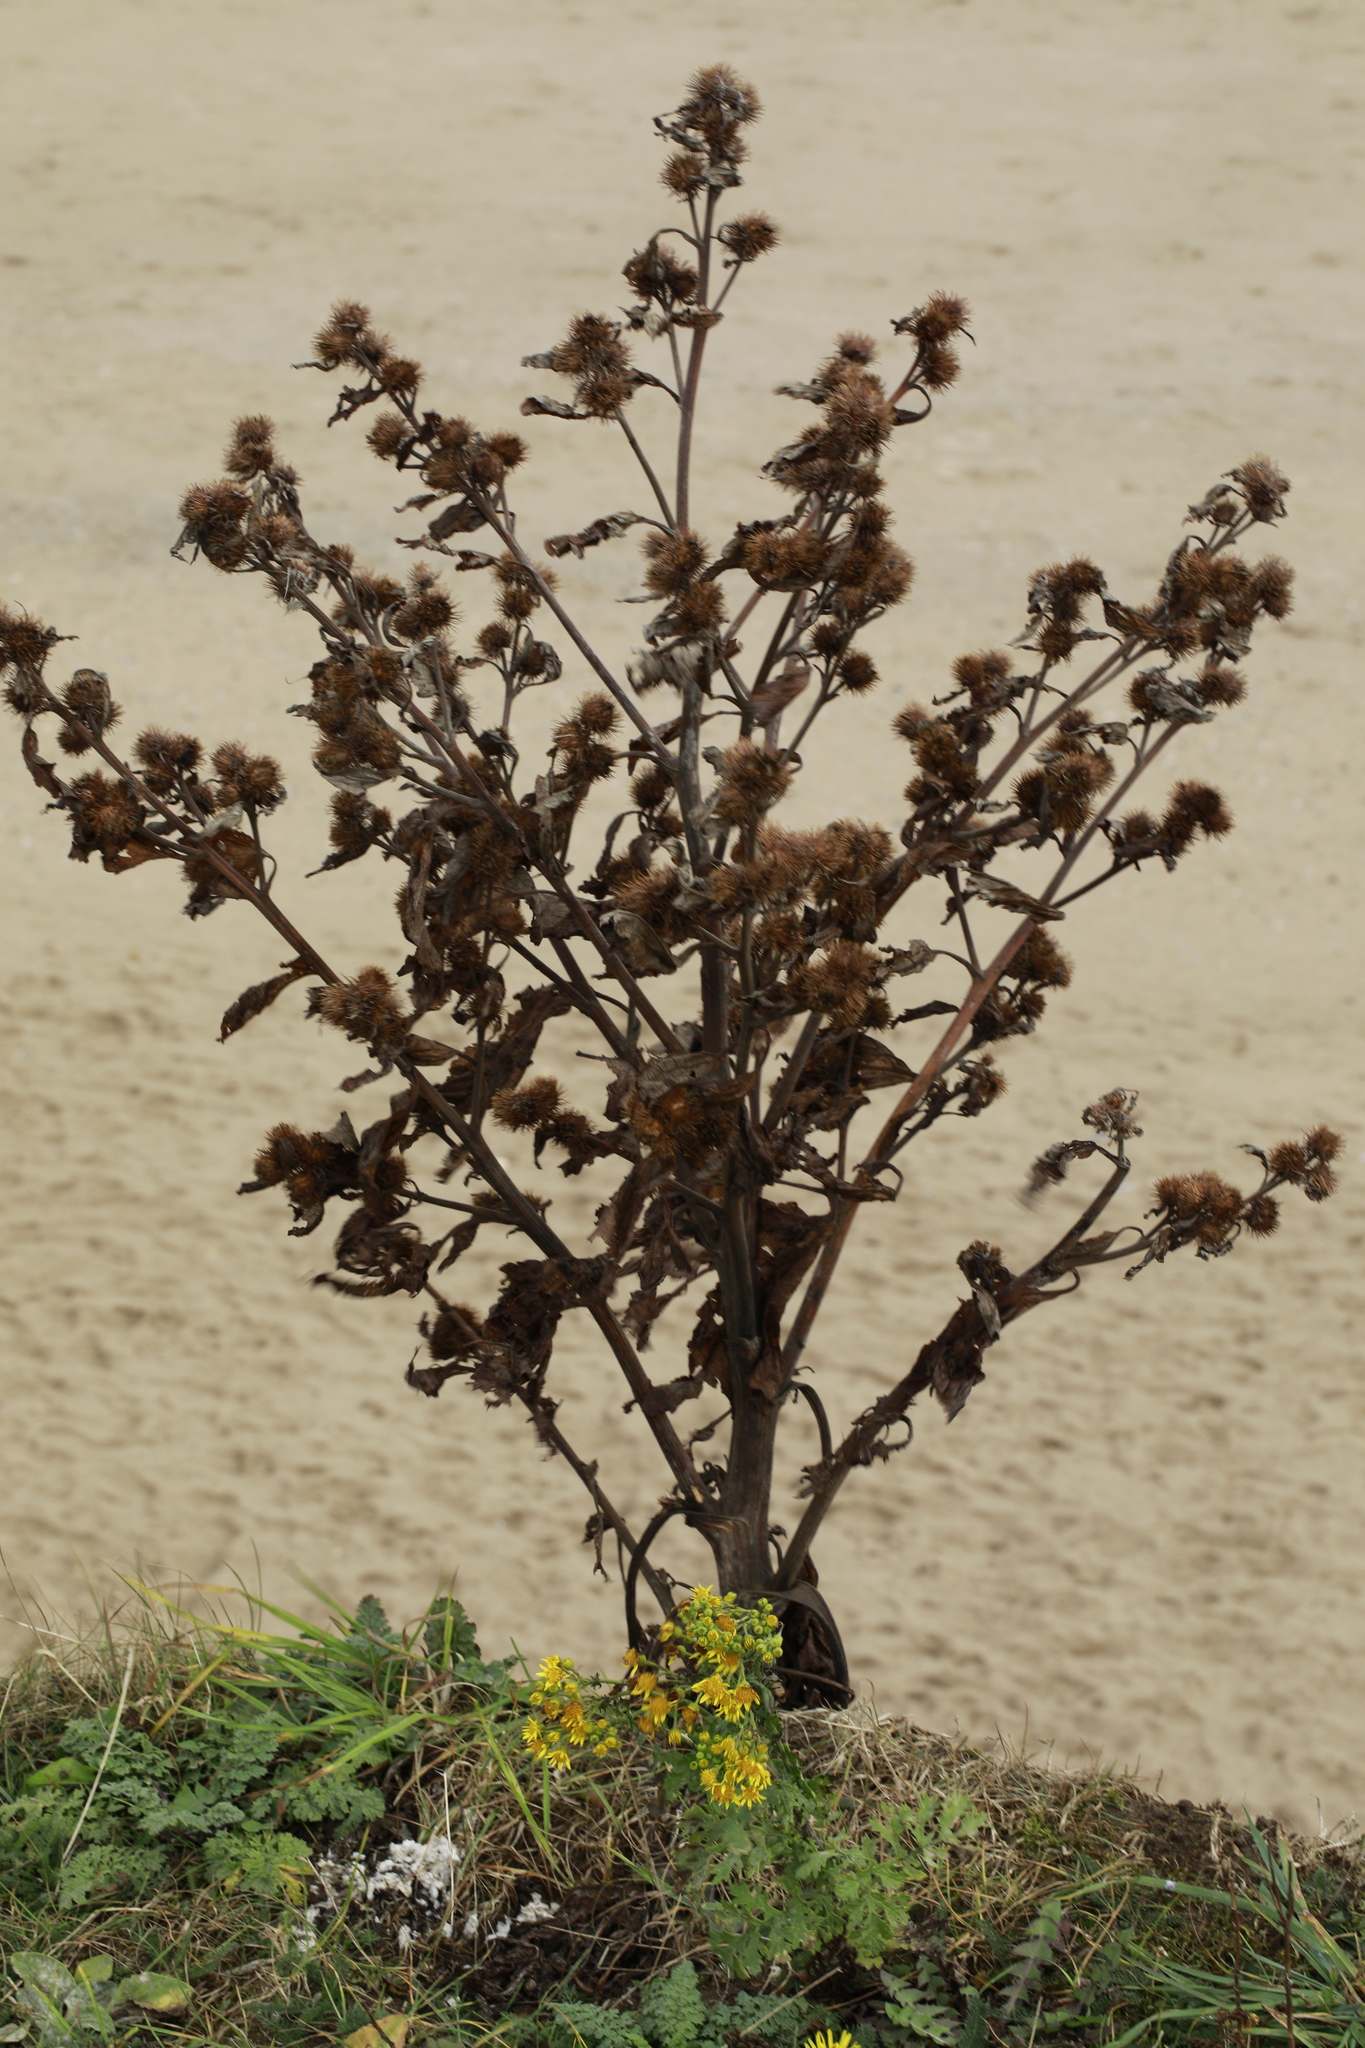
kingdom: Plantae
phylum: Tracheophyta
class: Magnoliopsida
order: Asterales
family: Asteraceae
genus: Arctium
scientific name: Arctium minus
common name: Lesser burdock
